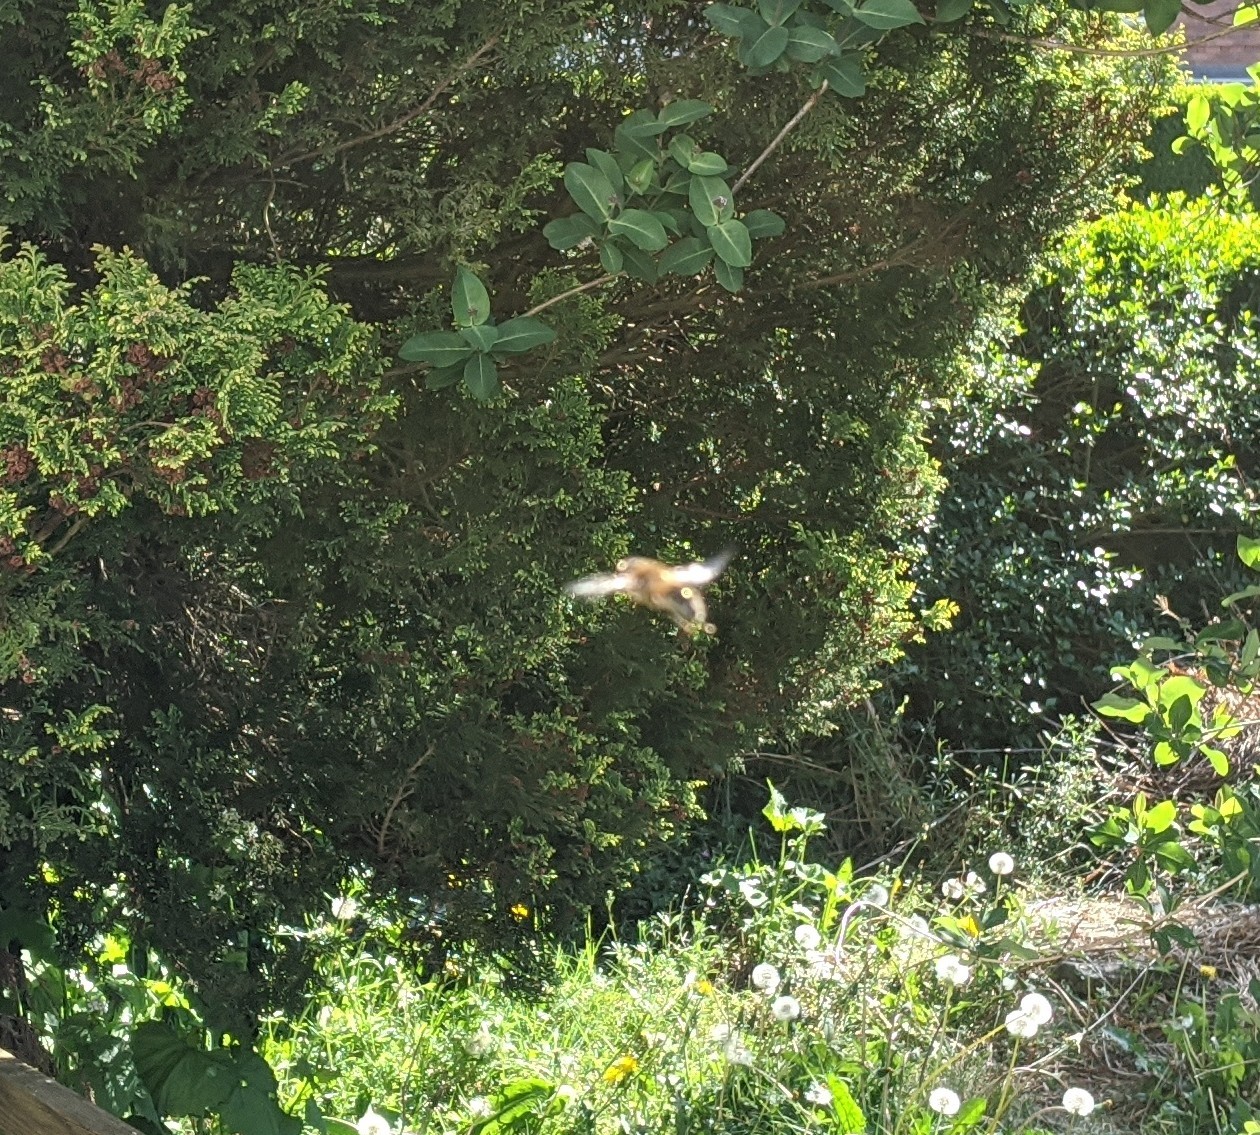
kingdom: Animalia
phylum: Arthropoda
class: Insecta
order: Diptera
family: Syrphidae
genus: Eristalis
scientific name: Eristalis
